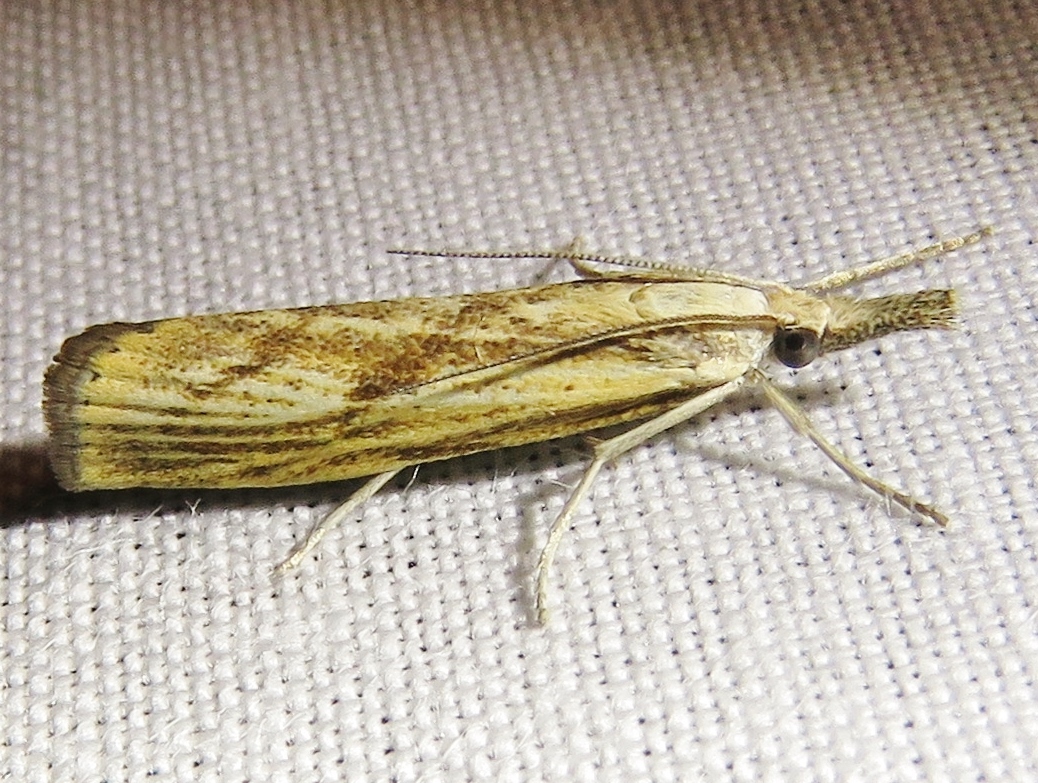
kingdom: Animalia
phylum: Arthropoda
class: Insecta
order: Lepidoptera
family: Crambidae
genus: Agriphila
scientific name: Agriphila inquinatella
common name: Barred grass-veneer
